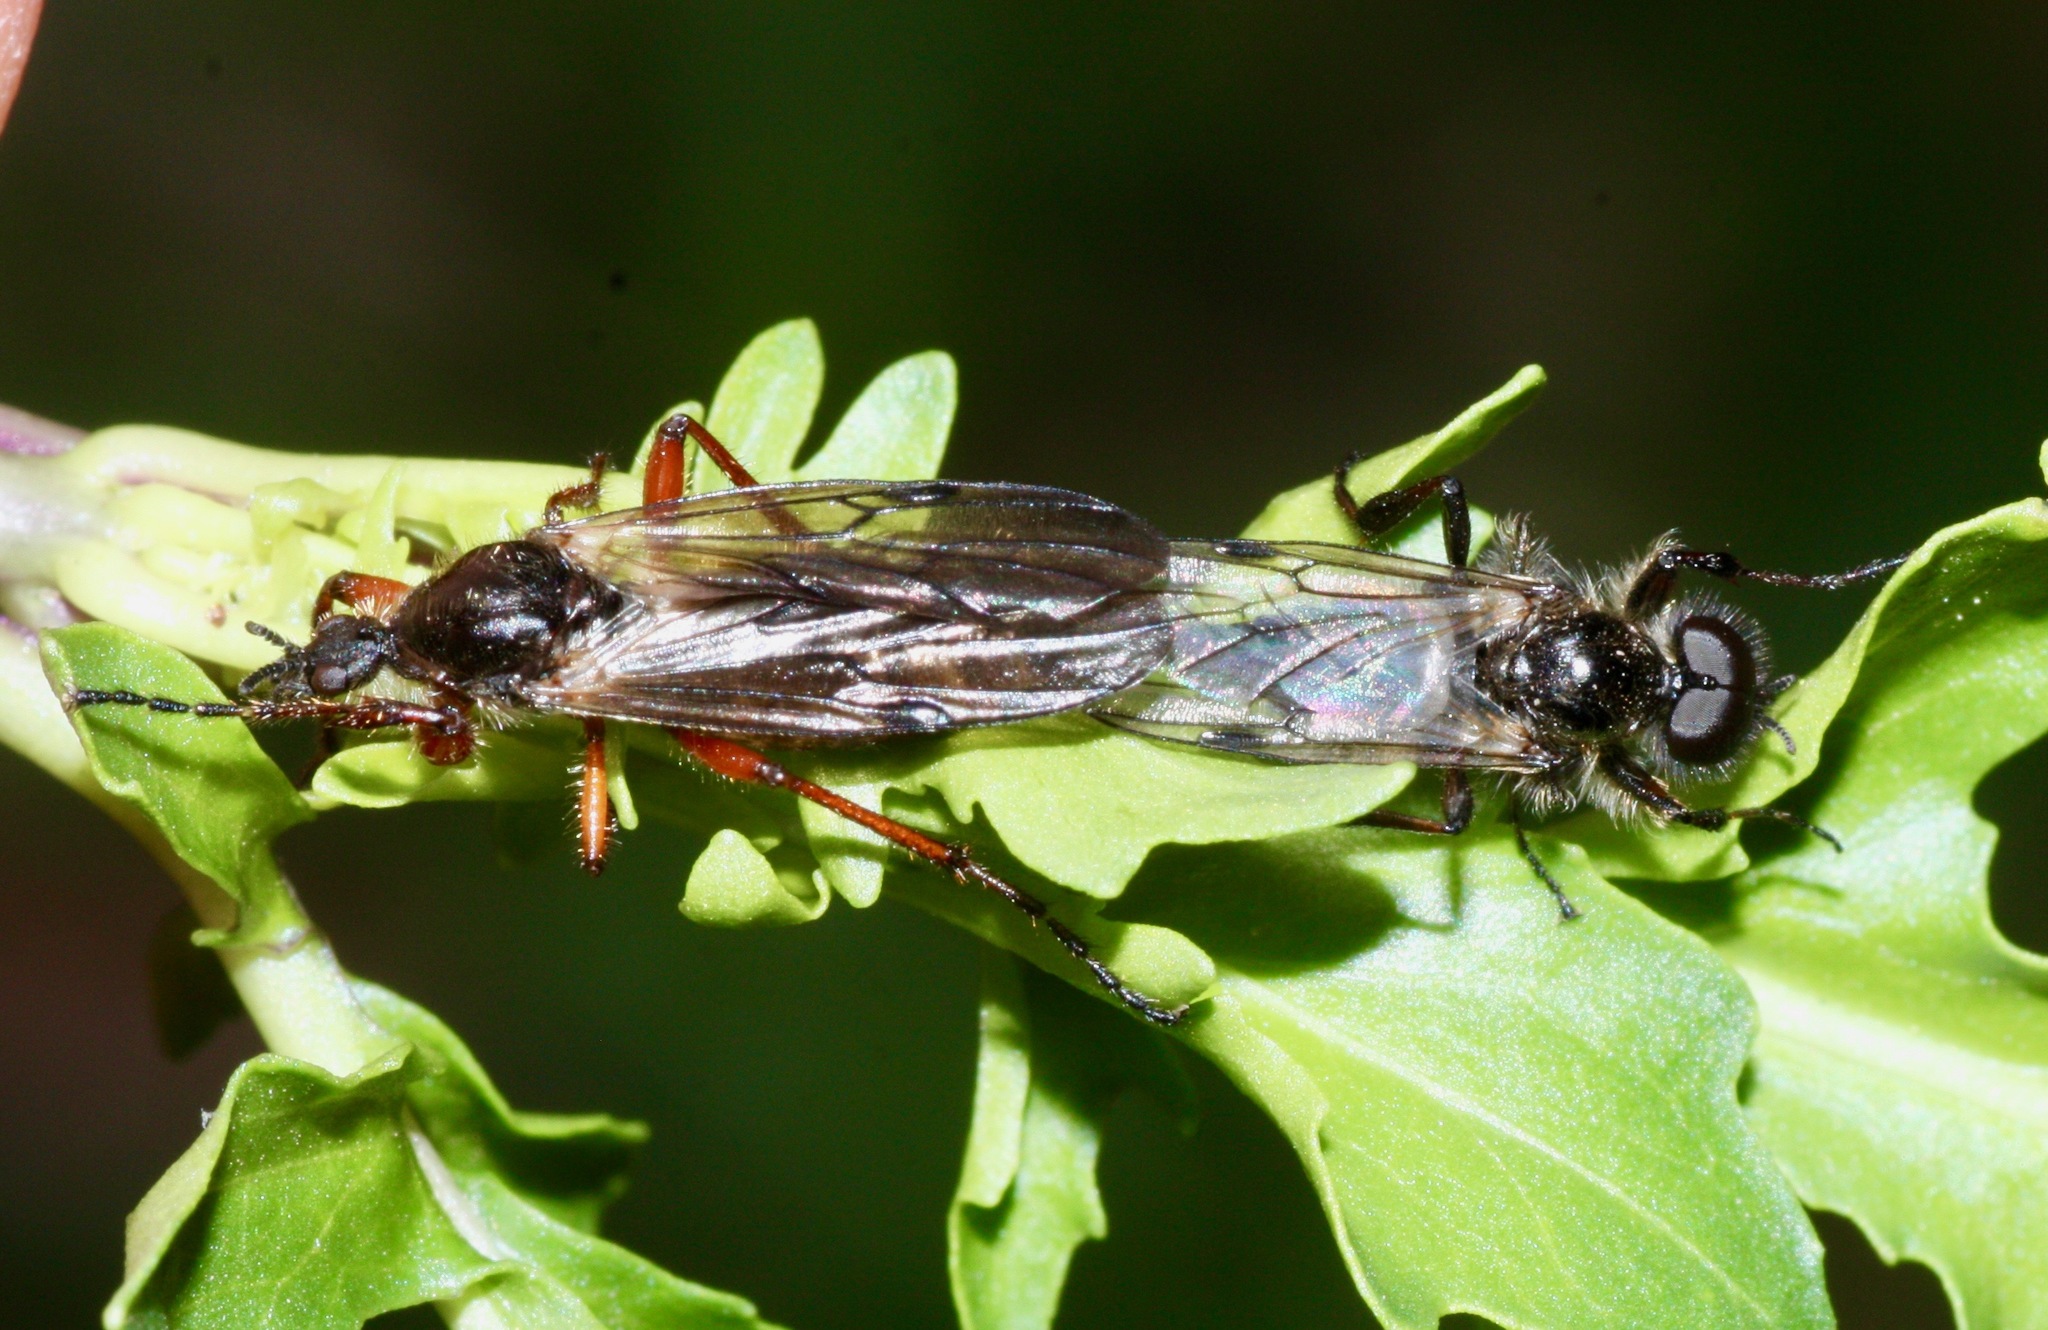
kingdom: Animalia
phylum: Arthropoda
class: Insecta
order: Diptera
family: Bibionidae
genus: Bibio
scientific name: Bibio
